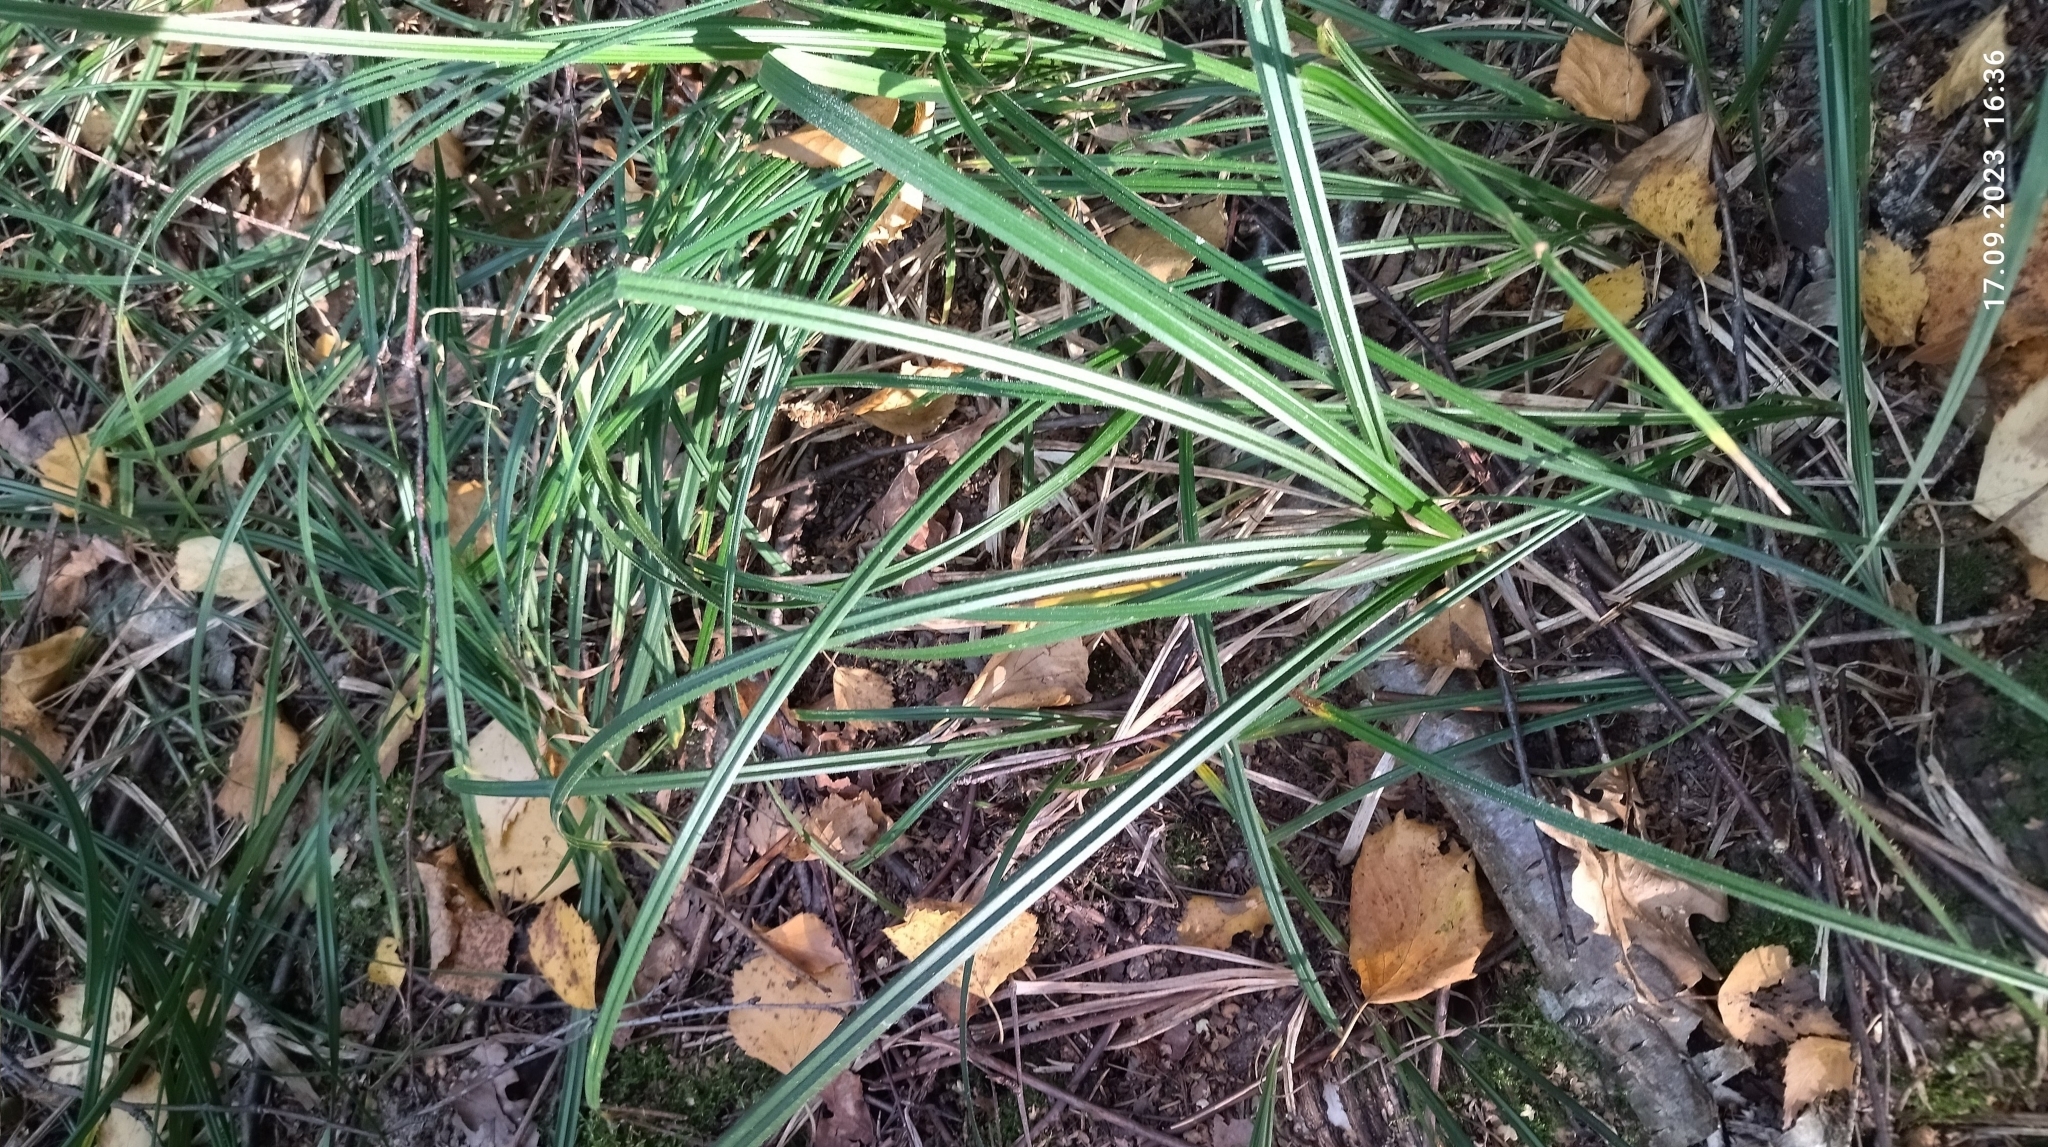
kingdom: Plantae
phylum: Tracheophyta
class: Liliopsida
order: Poales
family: Cyperaceae
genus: Carex
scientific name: Carex pilosa
